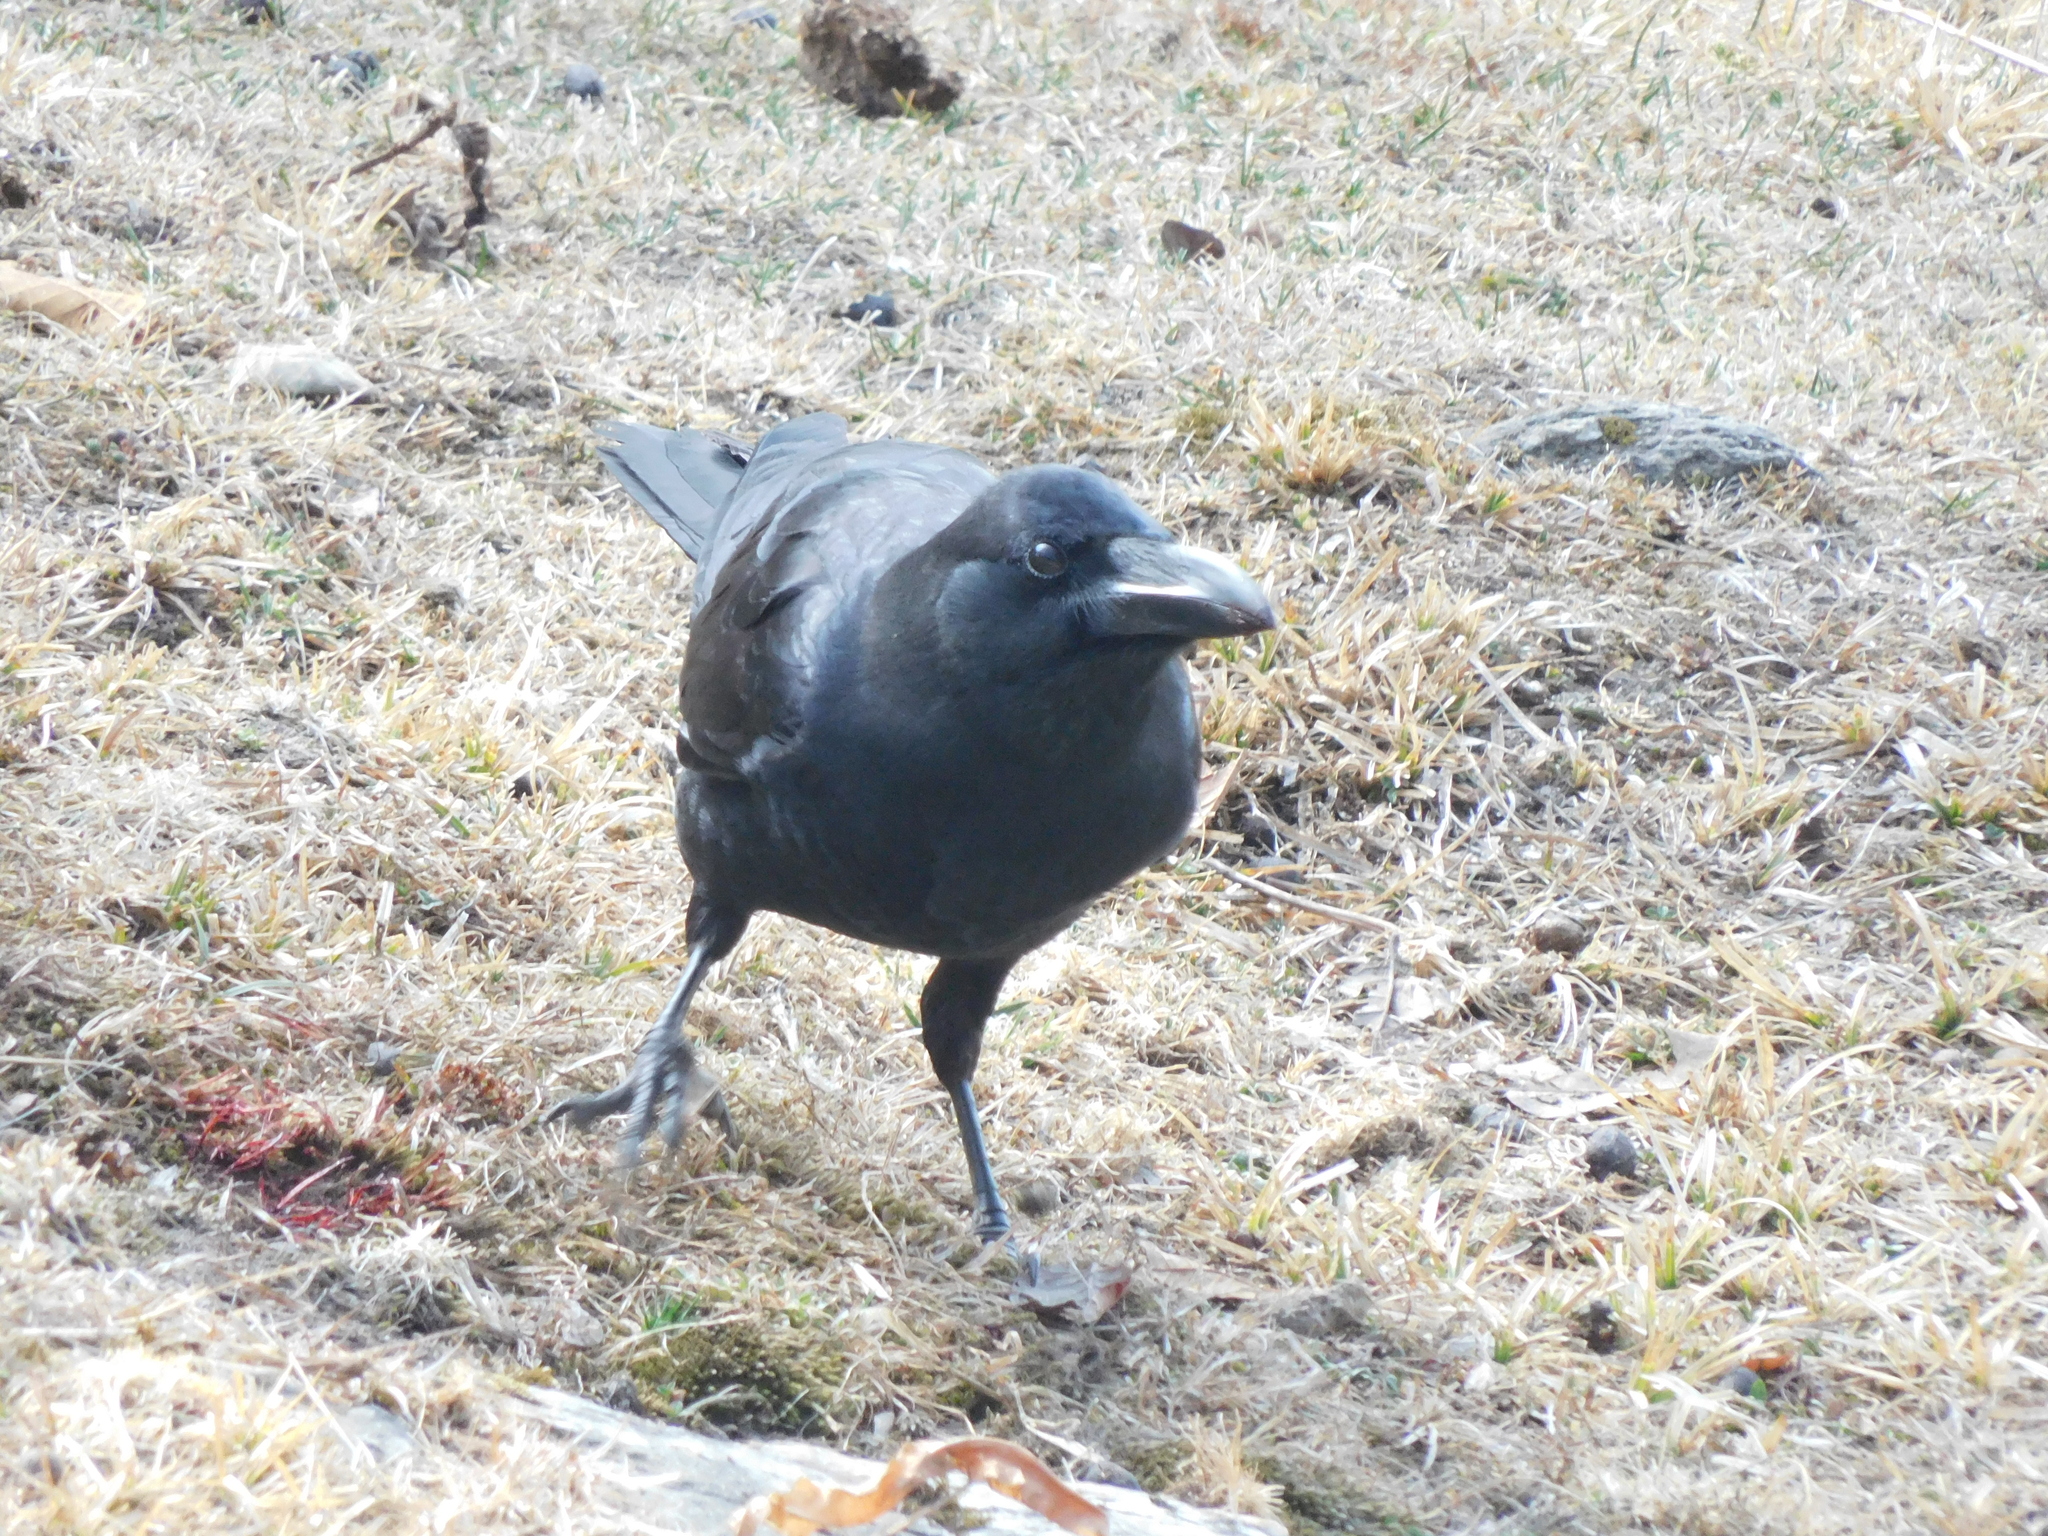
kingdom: Animalia
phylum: Chordata
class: Aves
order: Passeriformes
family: Corvidae
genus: Corvus
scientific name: Corvus macrorhynchos
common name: Large-billed crow
